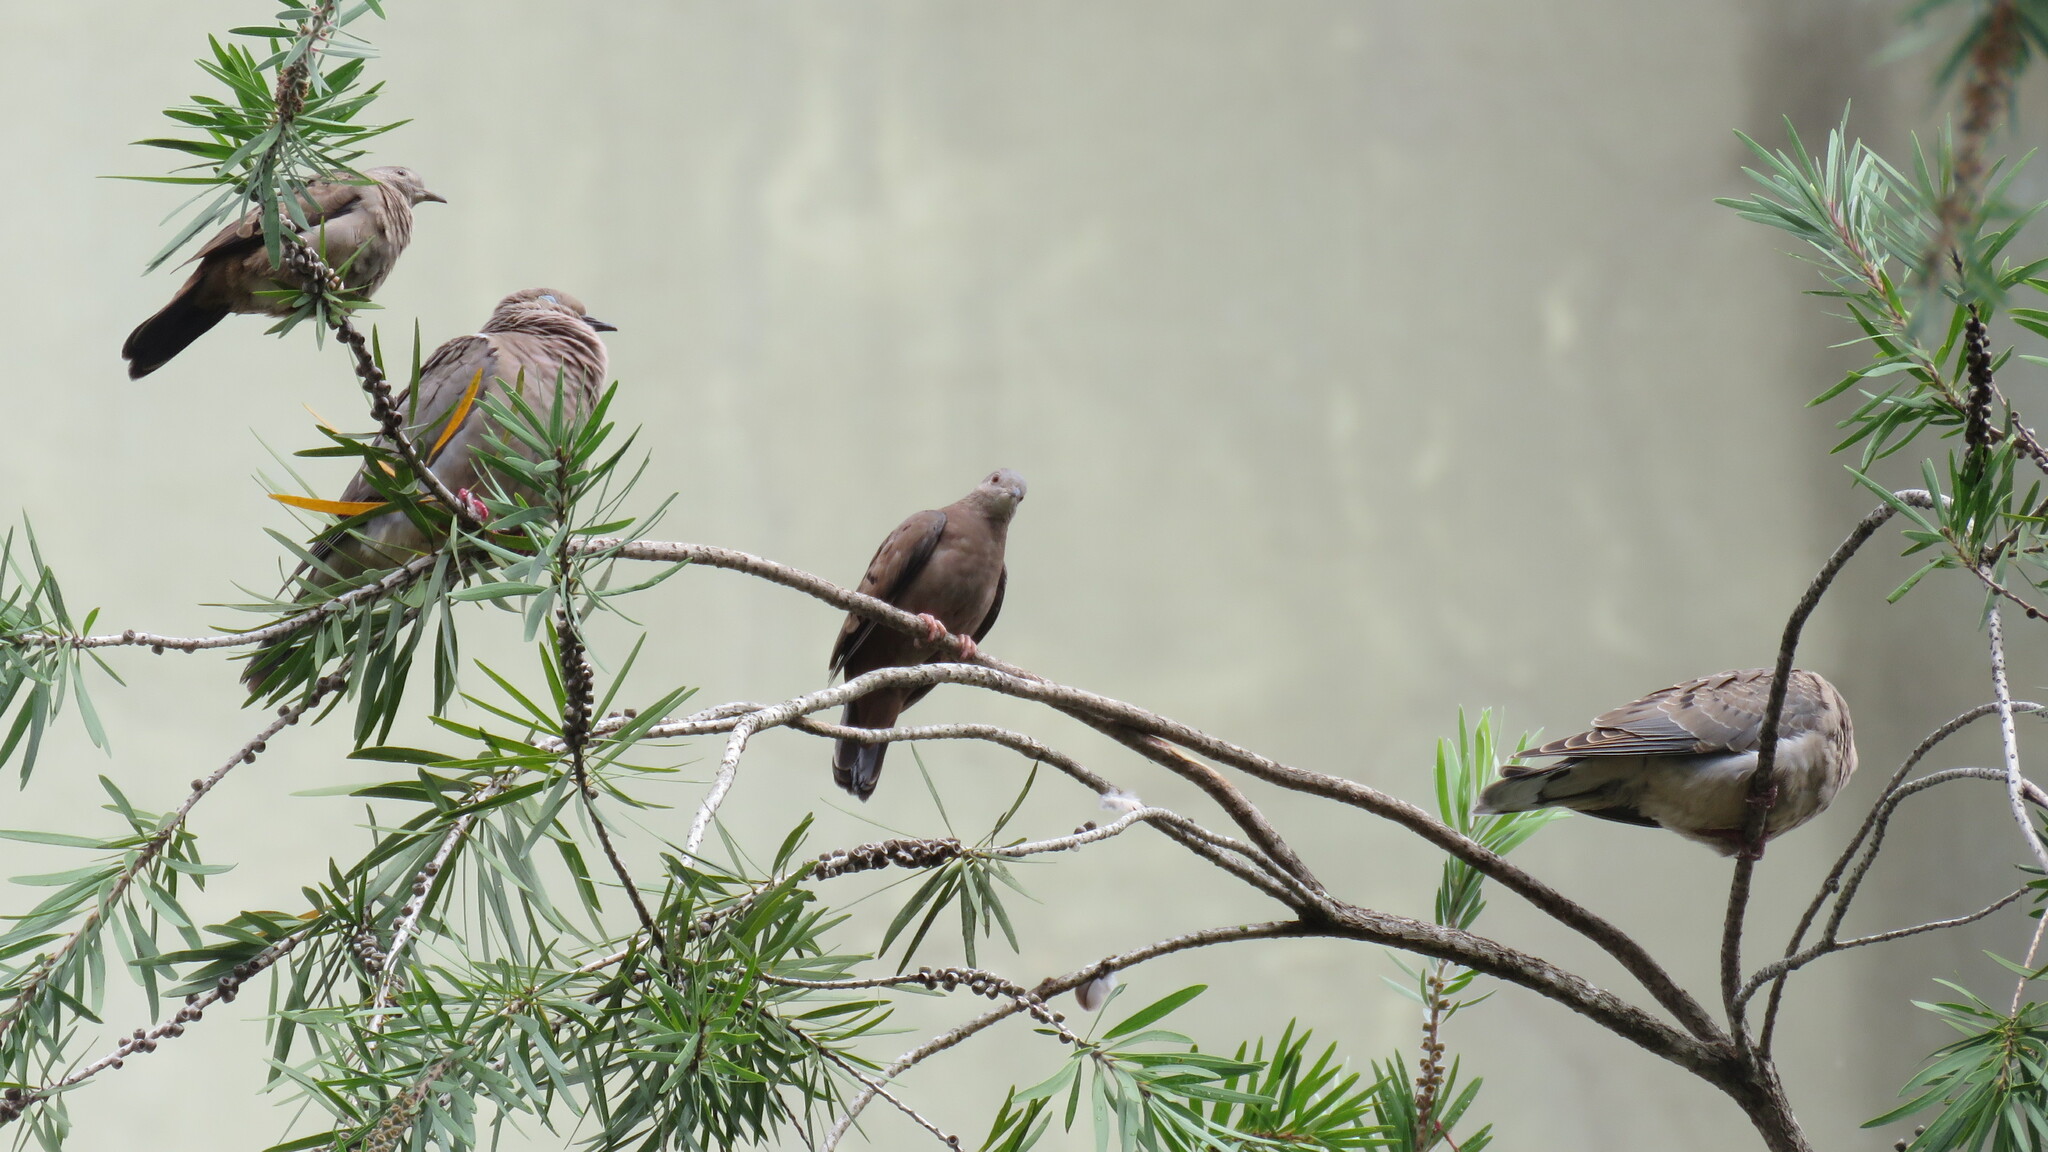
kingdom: Animalia
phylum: Chordata
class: Aves
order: Columbiformes
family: Columbidae
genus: Columbina
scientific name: Columbina talpacoti
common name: Ruddy ground dove
